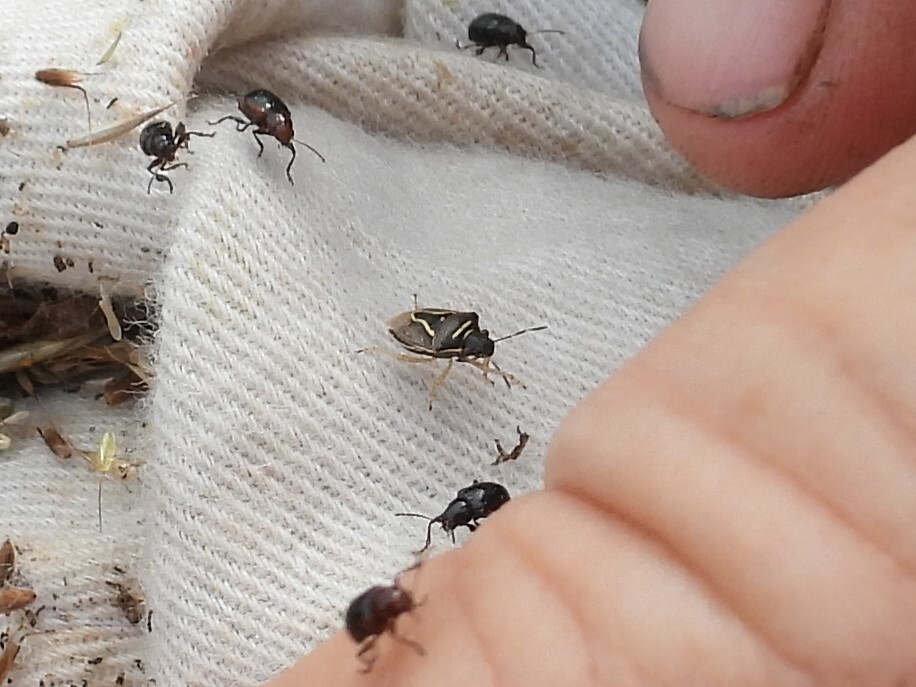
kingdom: Animalia
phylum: Arthropoda
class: Insecta
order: Hemiptera
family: Pentatomidae
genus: Mormidea
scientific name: Mormidea lugens
